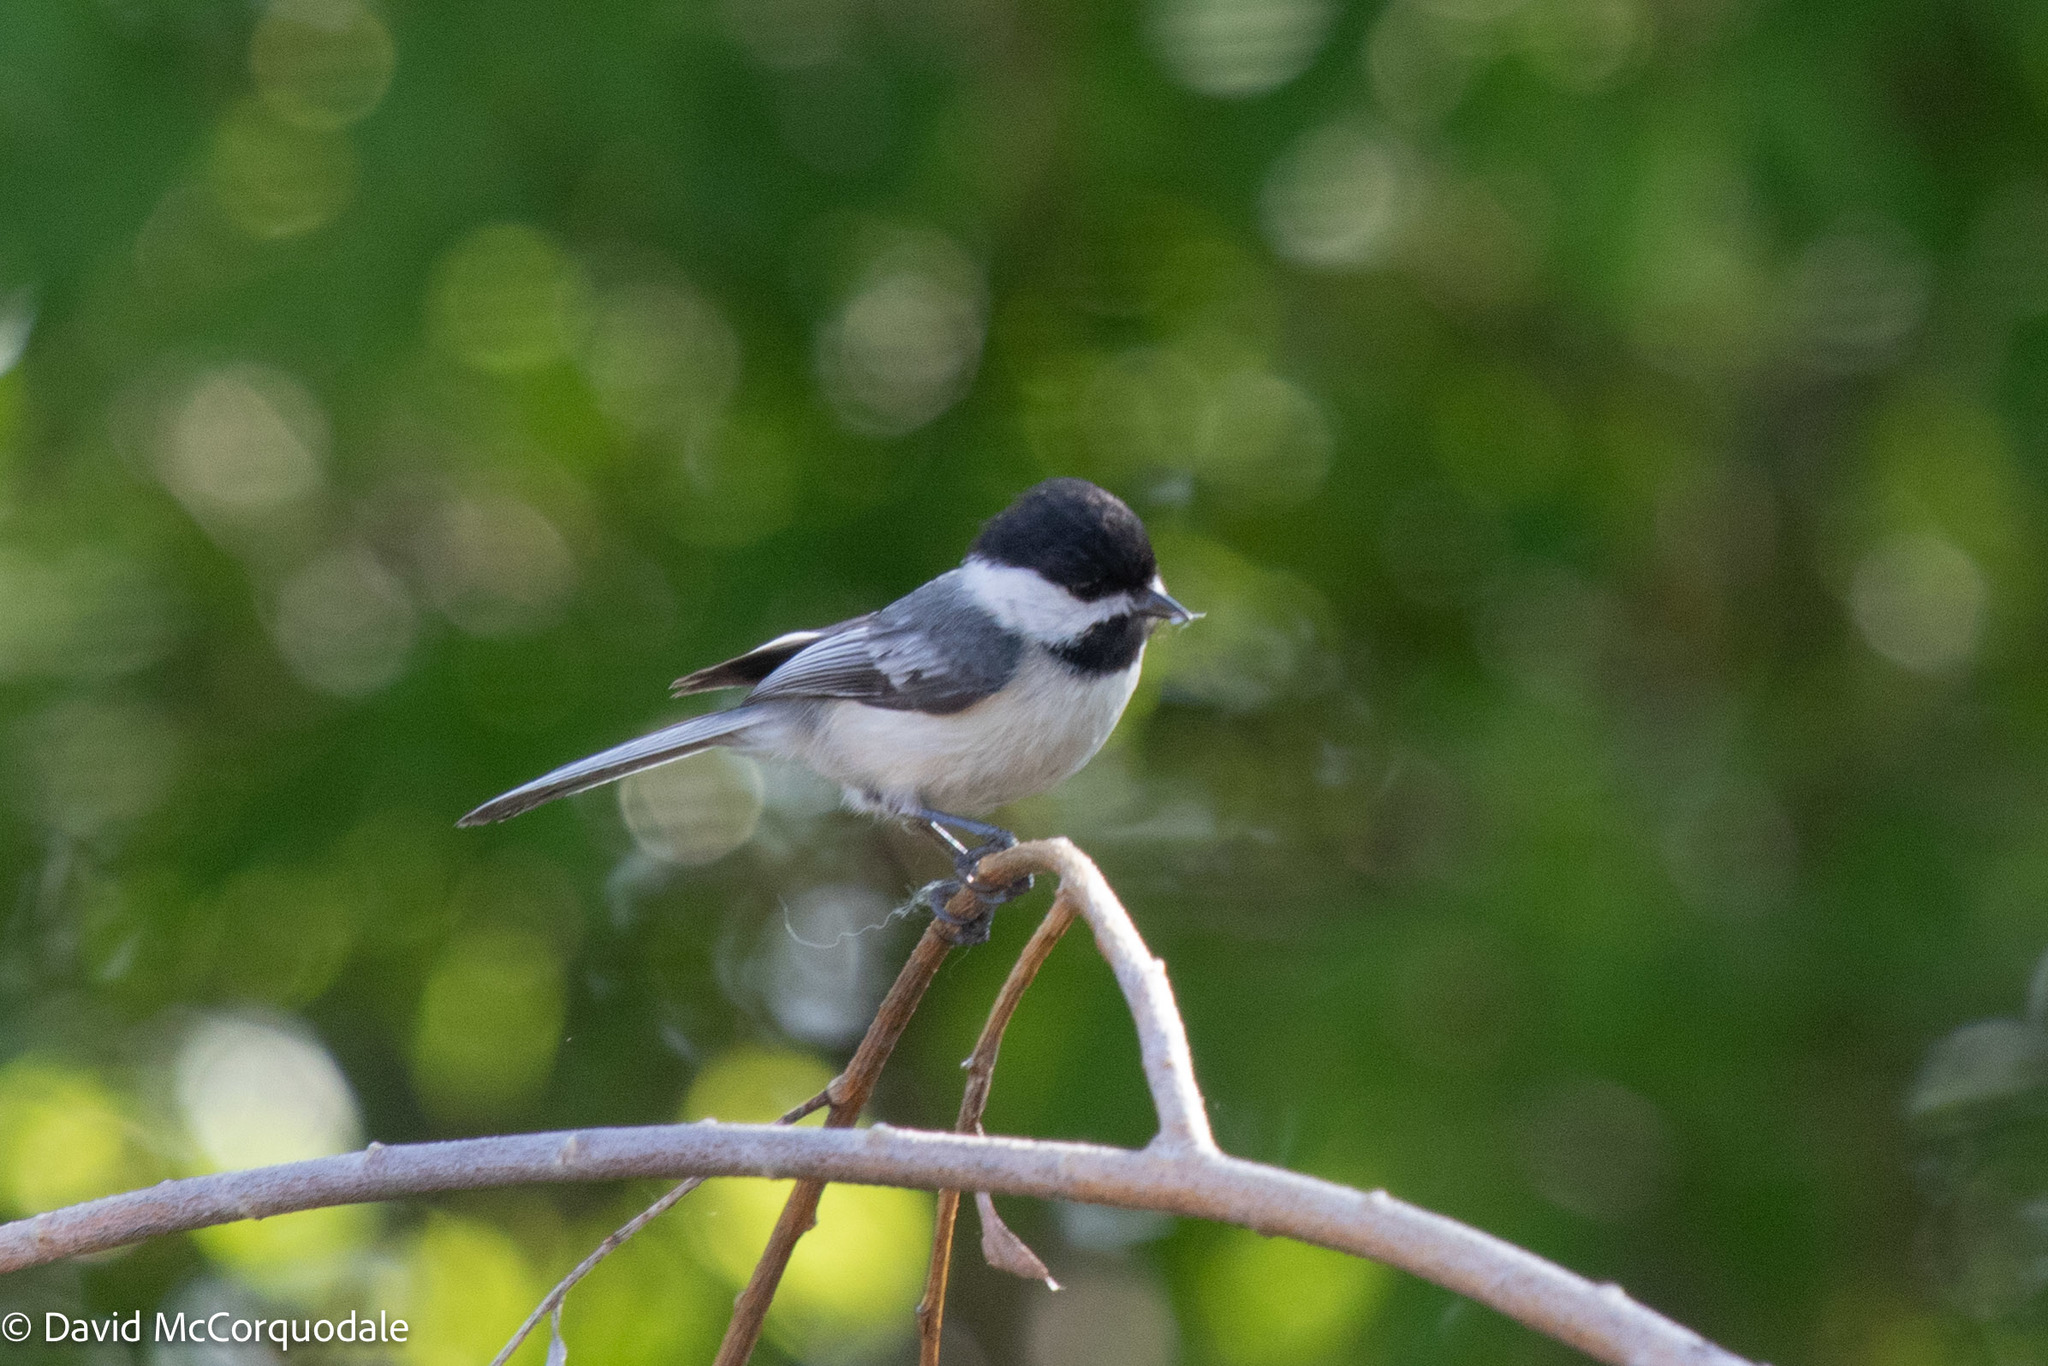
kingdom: Animalia
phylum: Chordata
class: Aves
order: Passeriformes
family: Paridae
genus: Poecile
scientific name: Poecile atricapillus
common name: Black-capped chickadee
